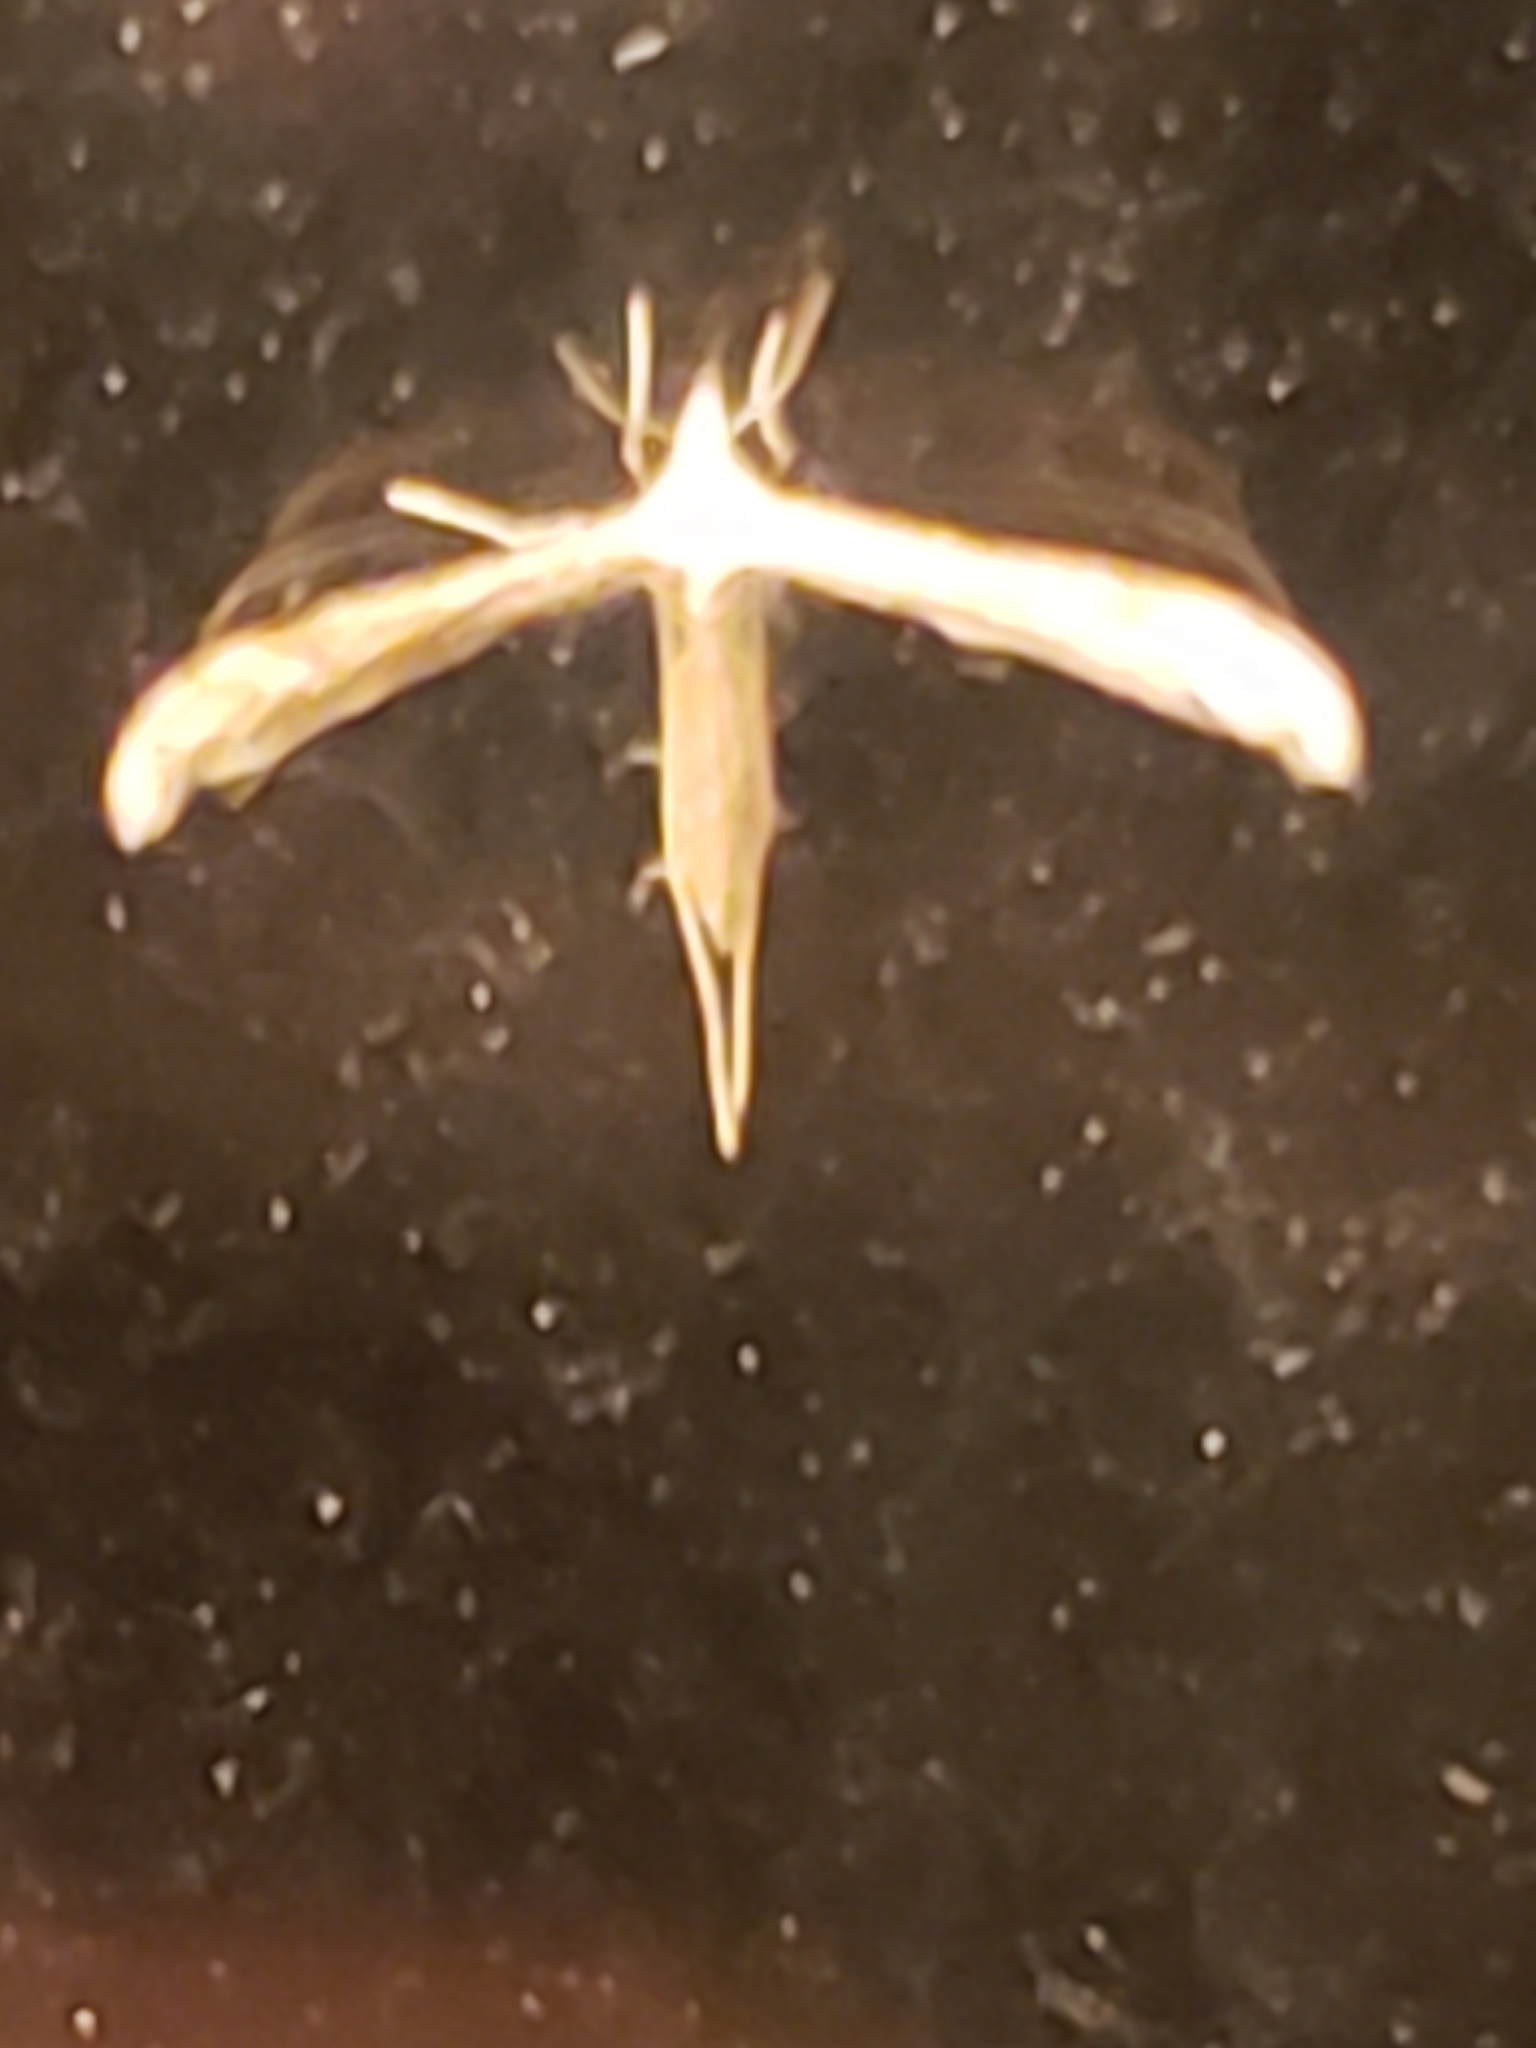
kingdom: Animalia
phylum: Arthropoda
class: Insecta
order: Lepidoptera
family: Pterophoridae
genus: Lioptilodes
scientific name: Lioptilodes albistriolatus
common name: Moth
